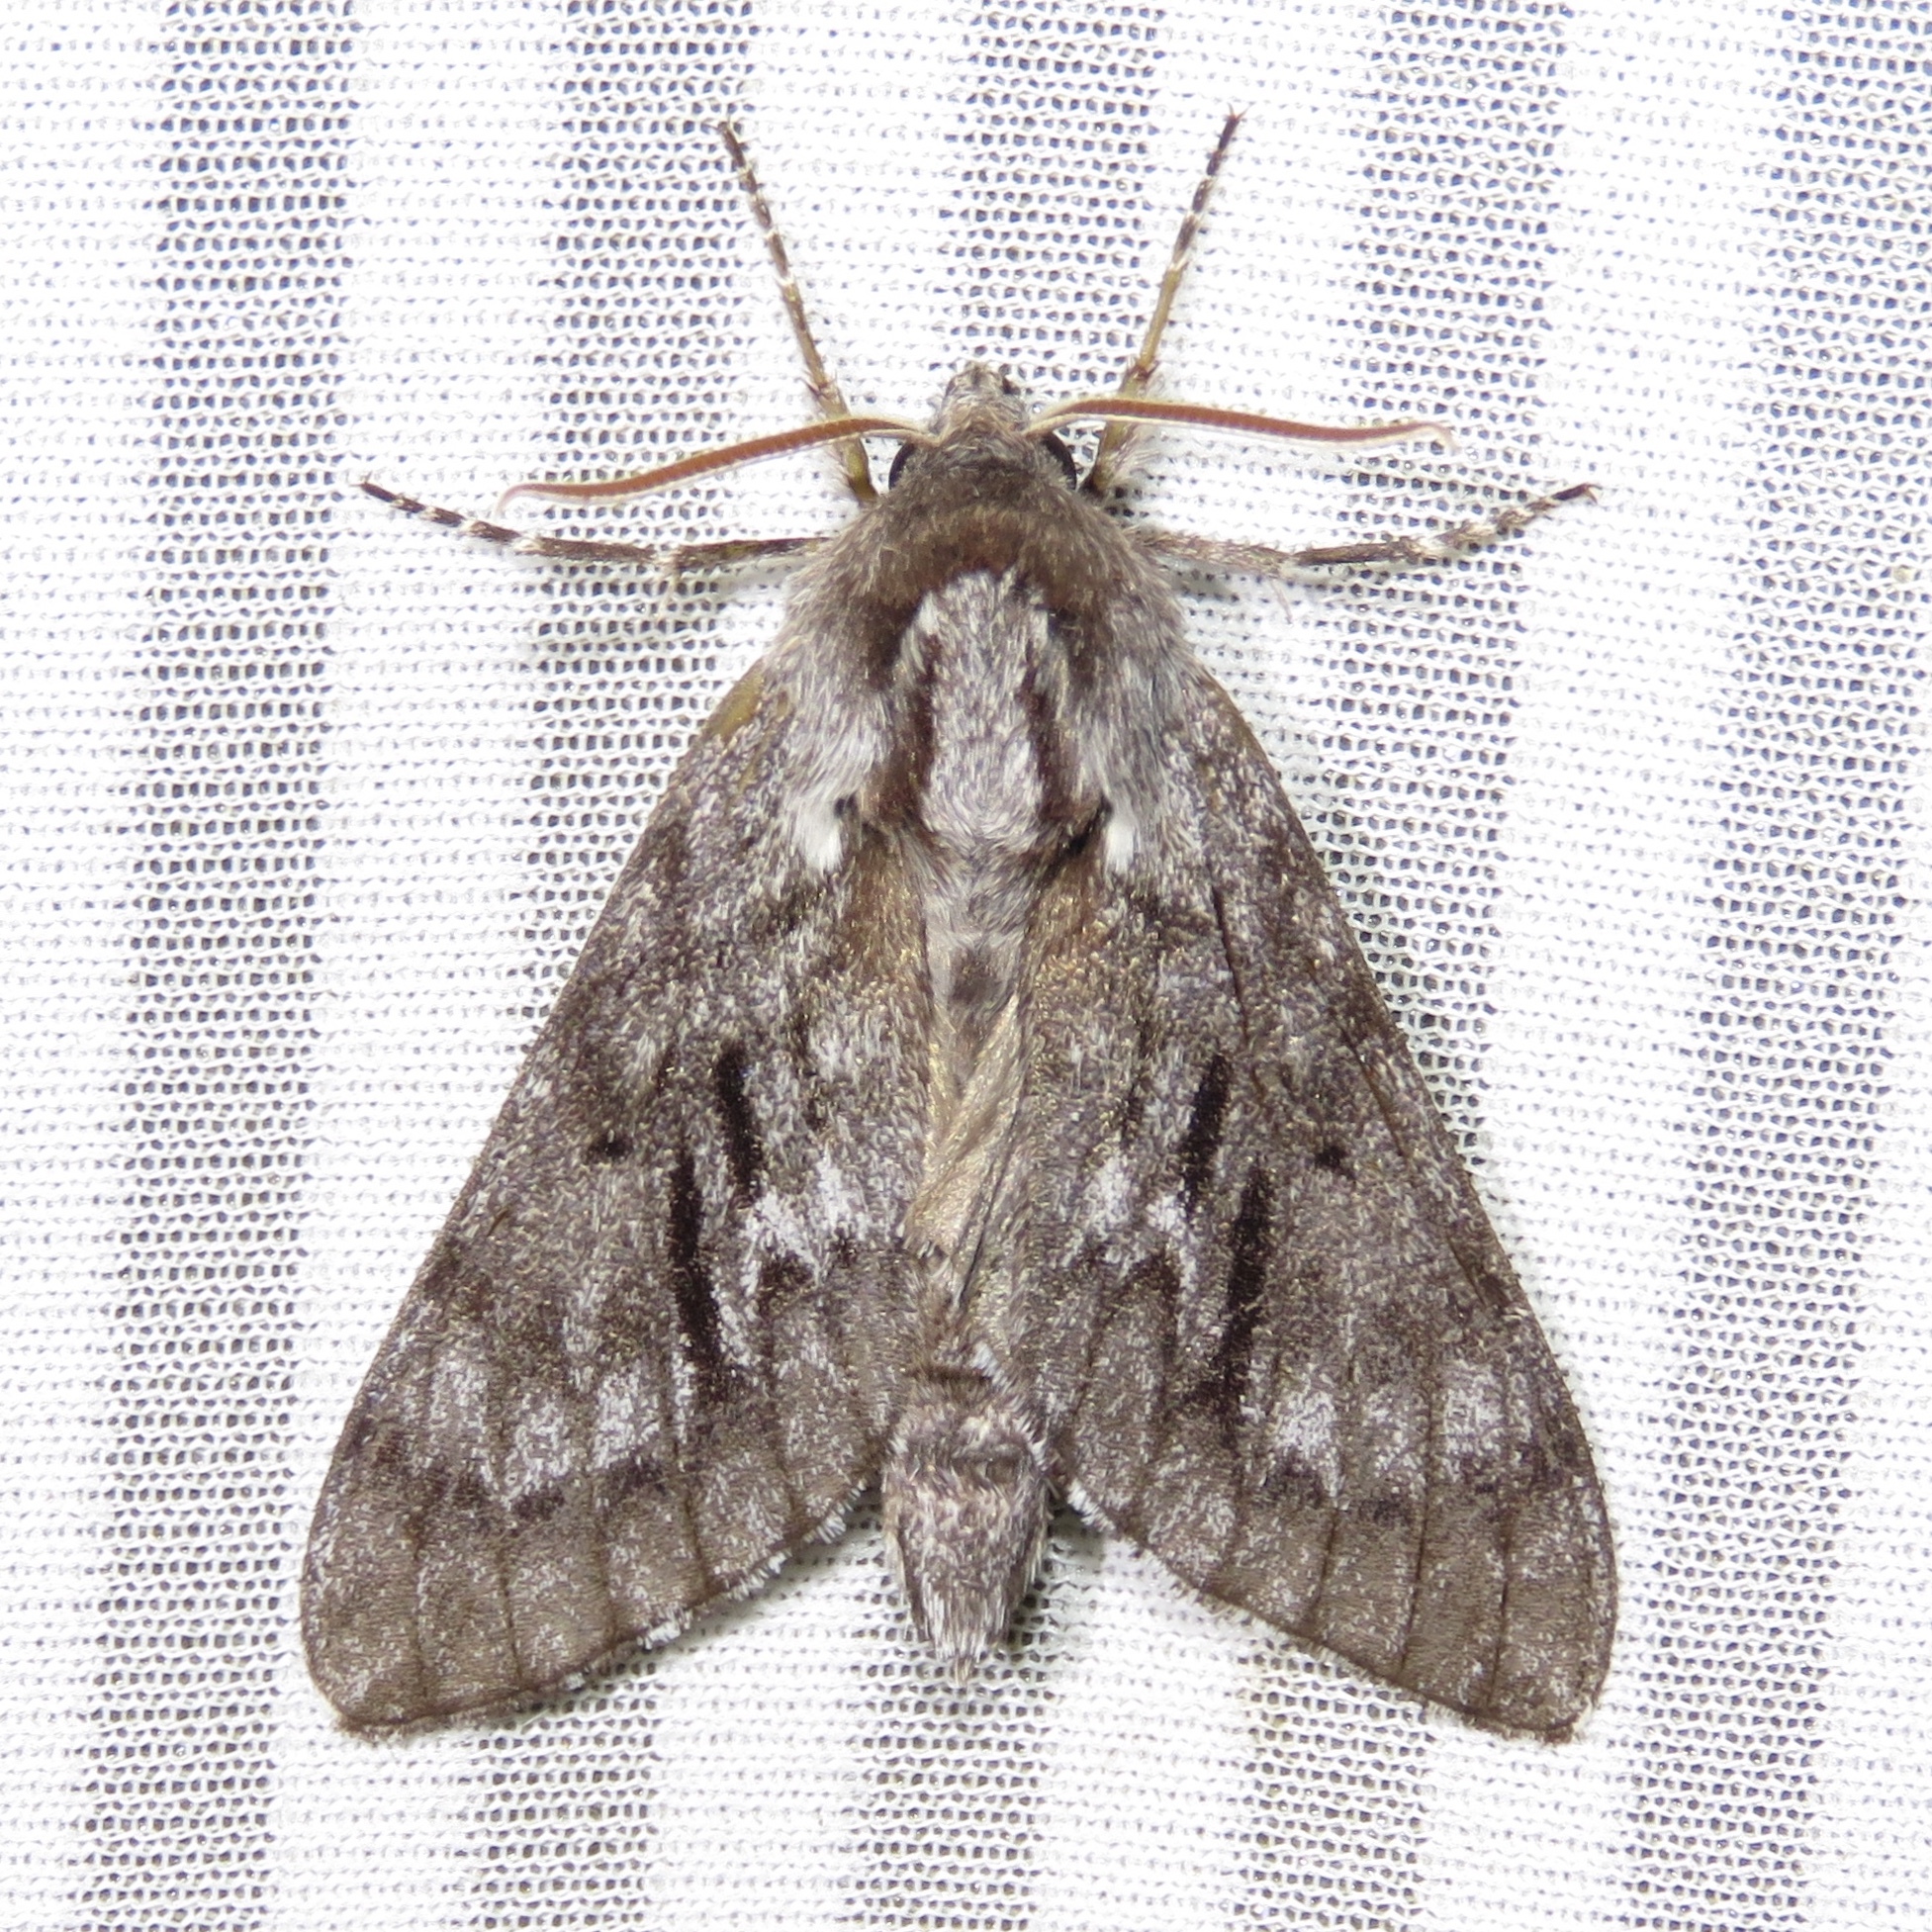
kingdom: Animalia
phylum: Arthropoda
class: Insecta
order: Lepidoptera
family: Sphingidae
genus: Lapara
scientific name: Lapara bombycoides
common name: Northern pine sphinx
